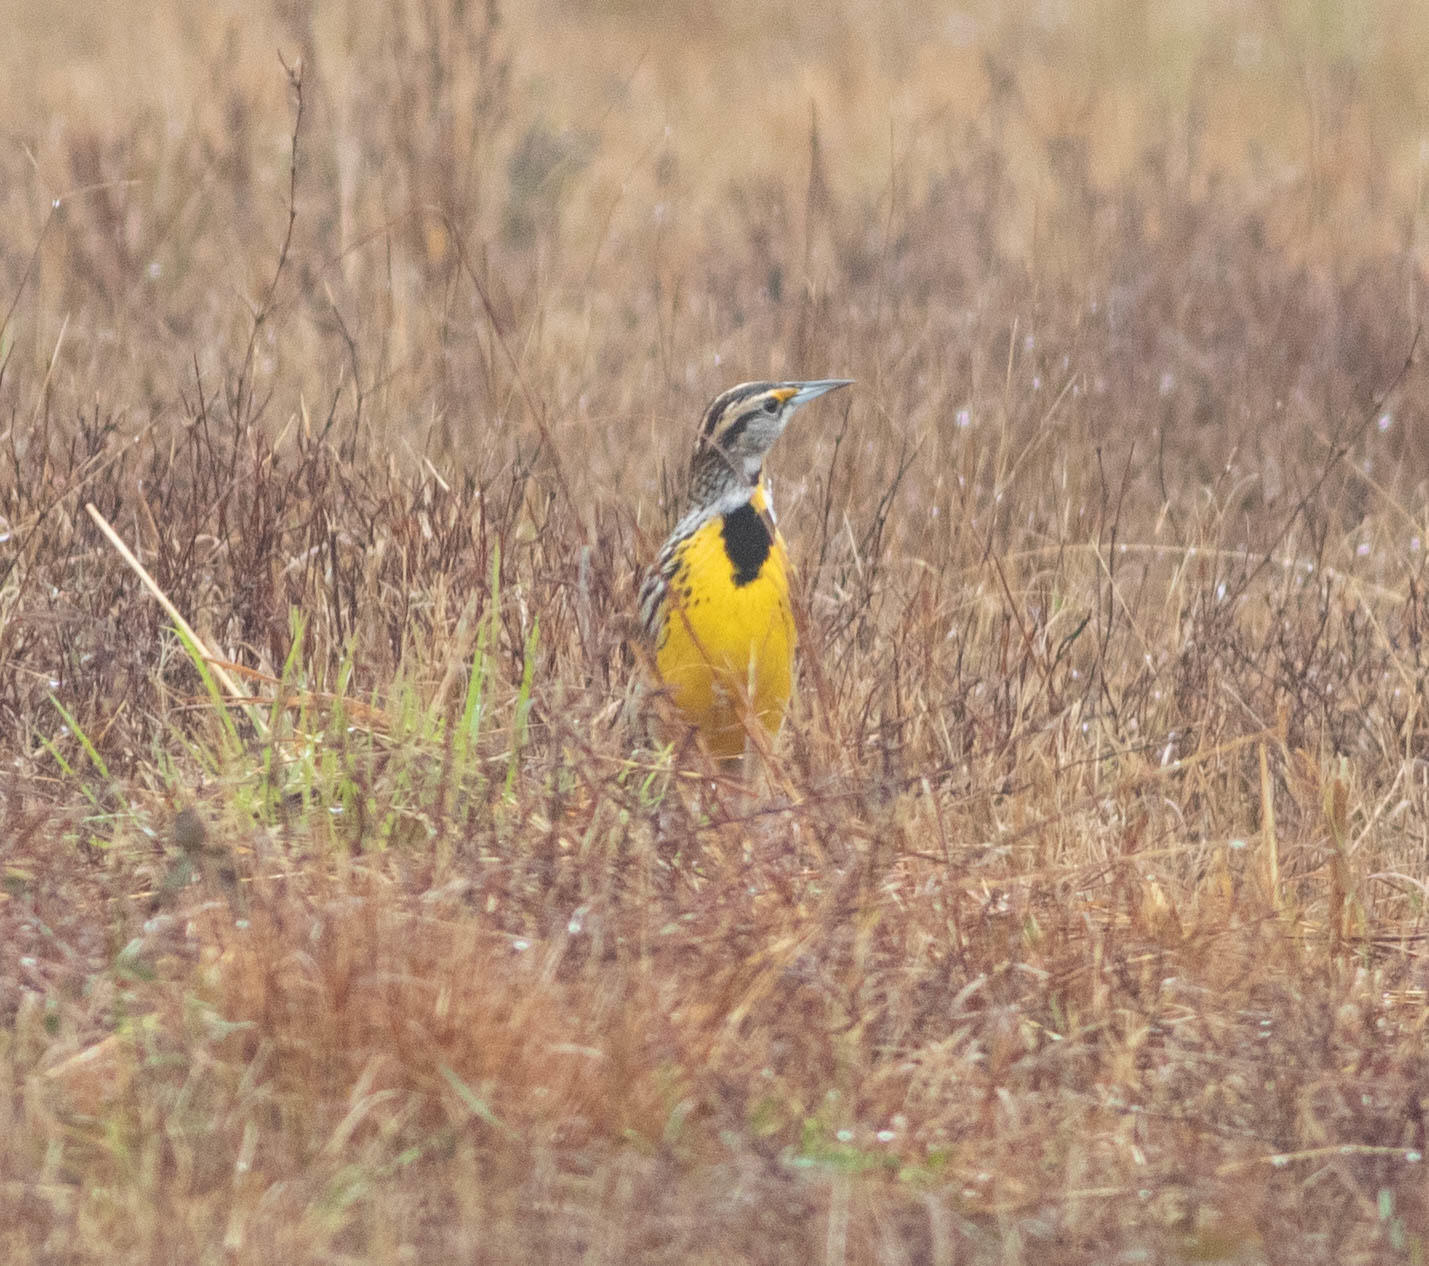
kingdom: Animalia
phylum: Chordata
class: Aves
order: Passeriformes
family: Icteridae
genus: Sturnella
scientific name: Sturnella magna
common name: Eastern meadowlark
